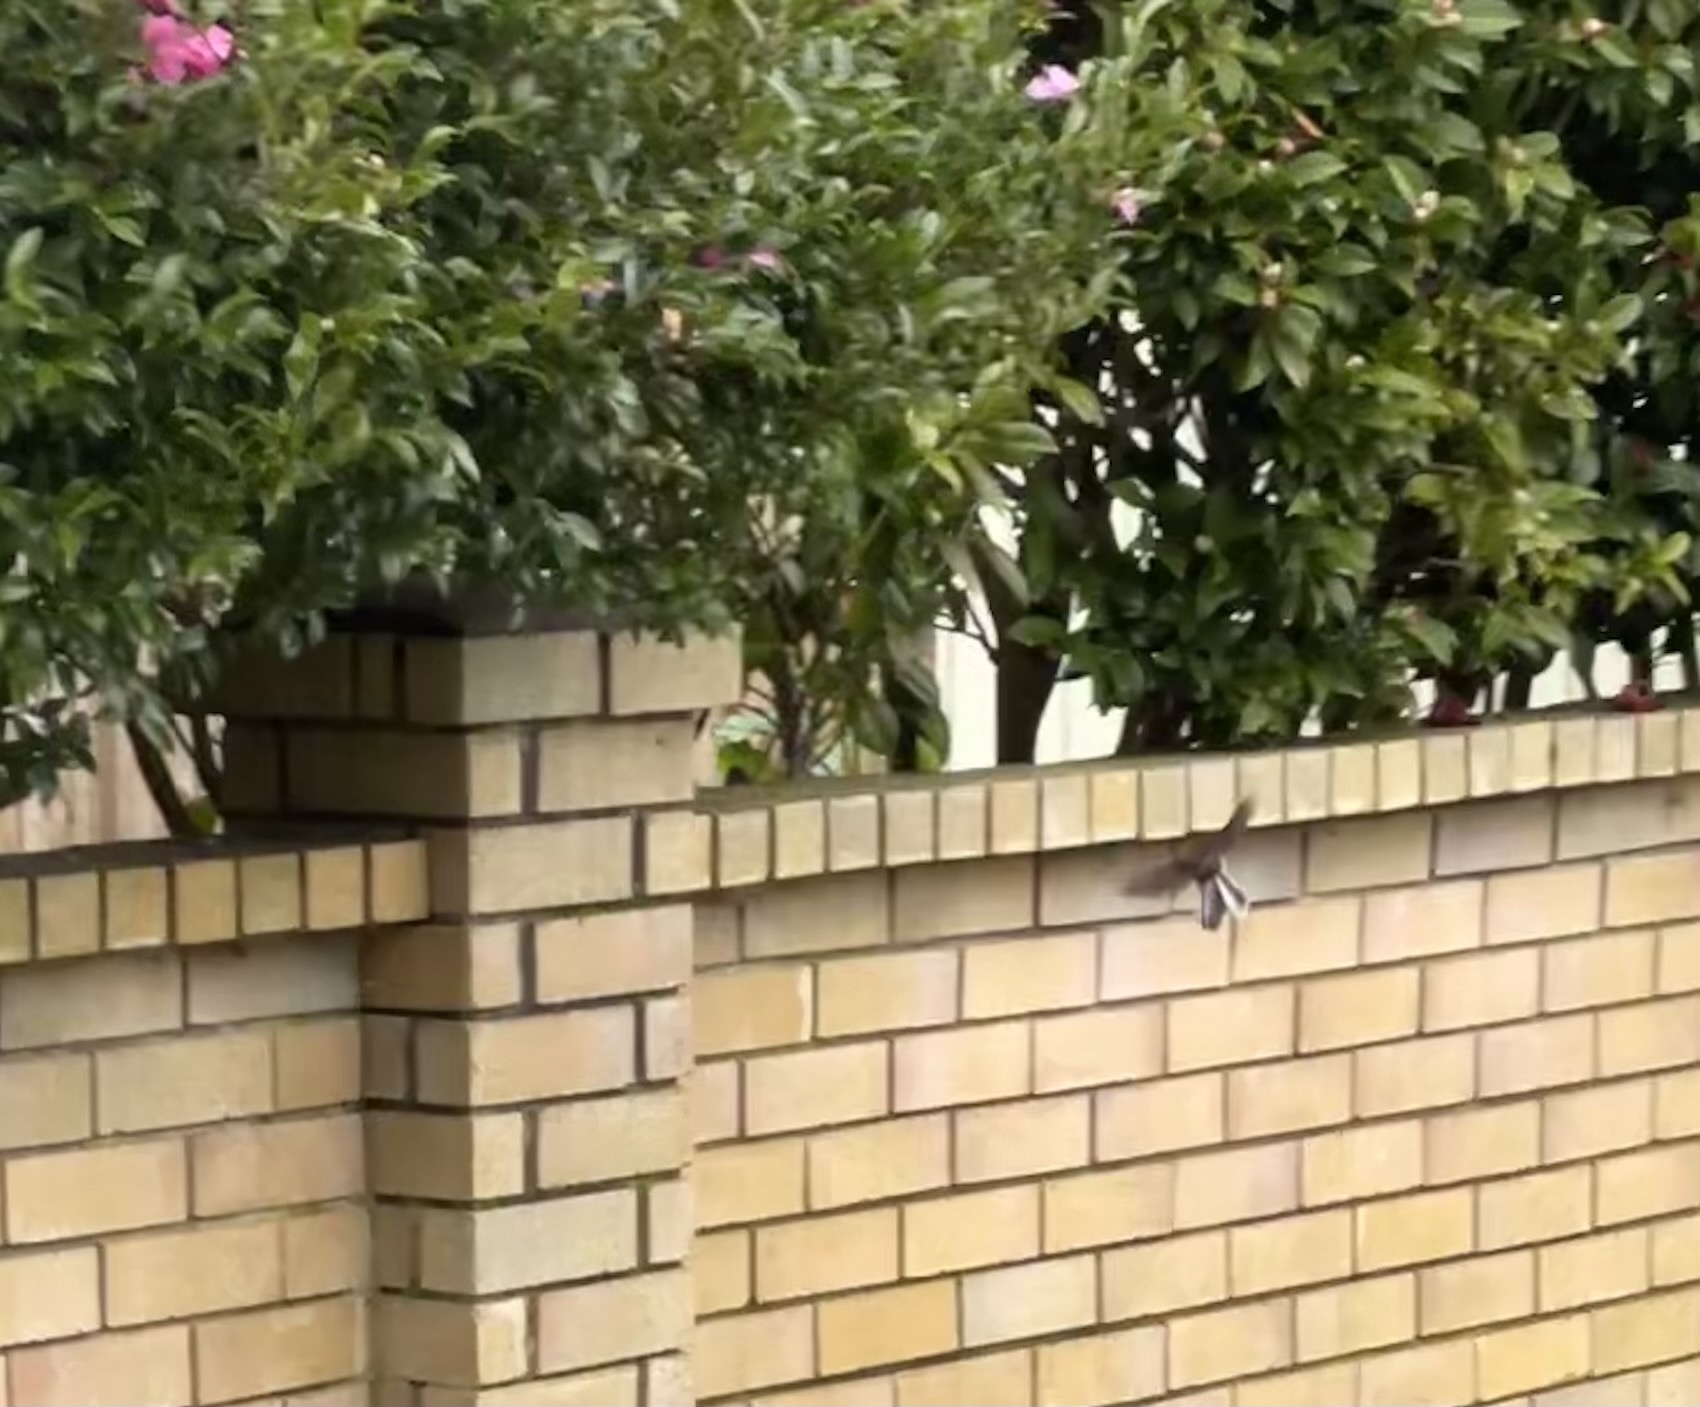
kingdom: Animalia
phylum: Chordata
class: Aves
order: Passeriformes
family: Rhipiduridae
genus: Rhipidura
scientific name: Rhipidura fuliginosa
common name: New zealand fantail
